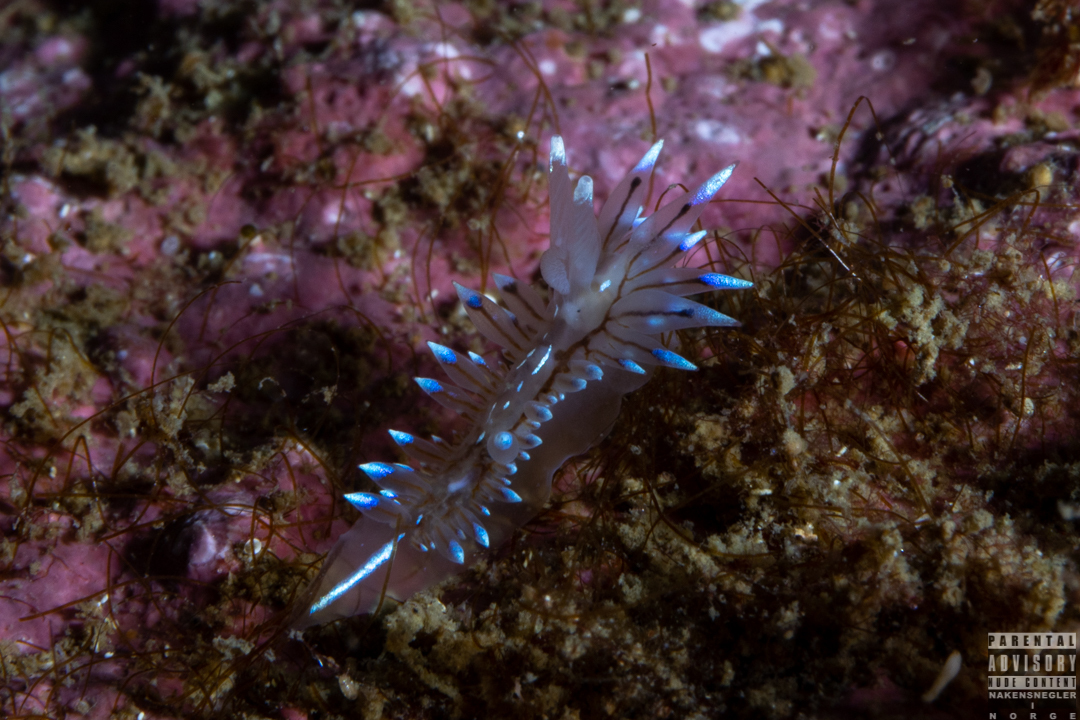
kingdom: Animalia
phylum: Mollusca
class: Gastropoda
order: Nudibranchia
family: Janolidae
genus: Antiopella
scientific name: Antiopella cristata
